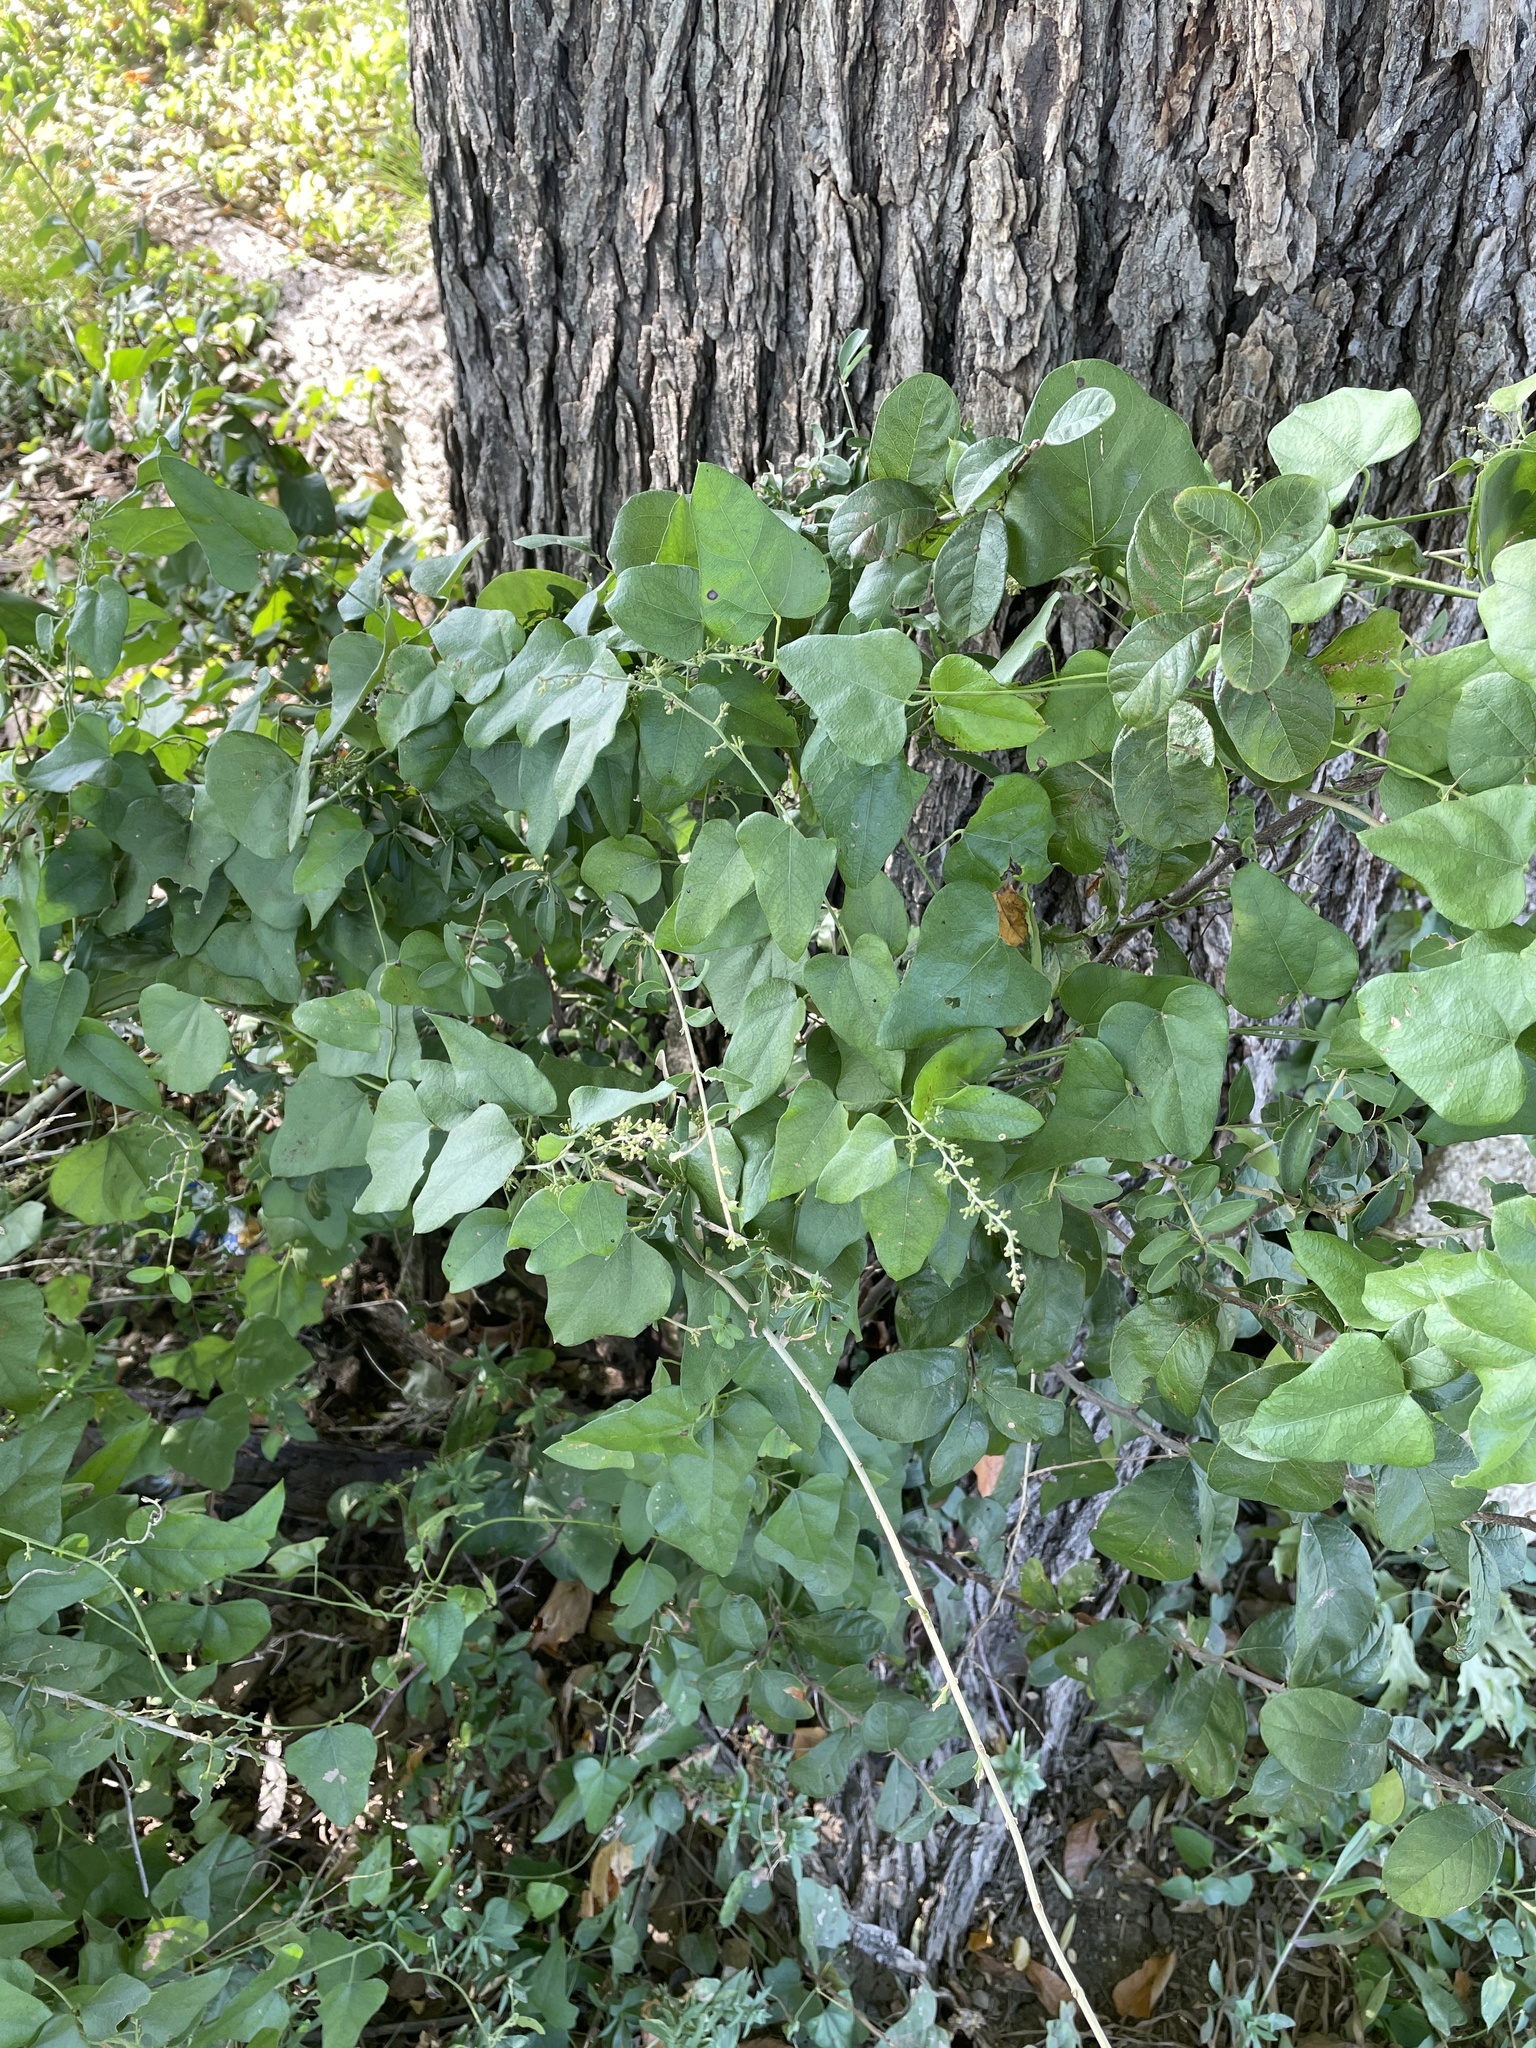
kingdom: Plantae
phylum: Tracheophyta
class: Magnoliopsida
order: Ranunculales
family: Menispermaceae
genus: Cocculus
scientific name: Cocculus carolinus
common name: Carolina moonseed
